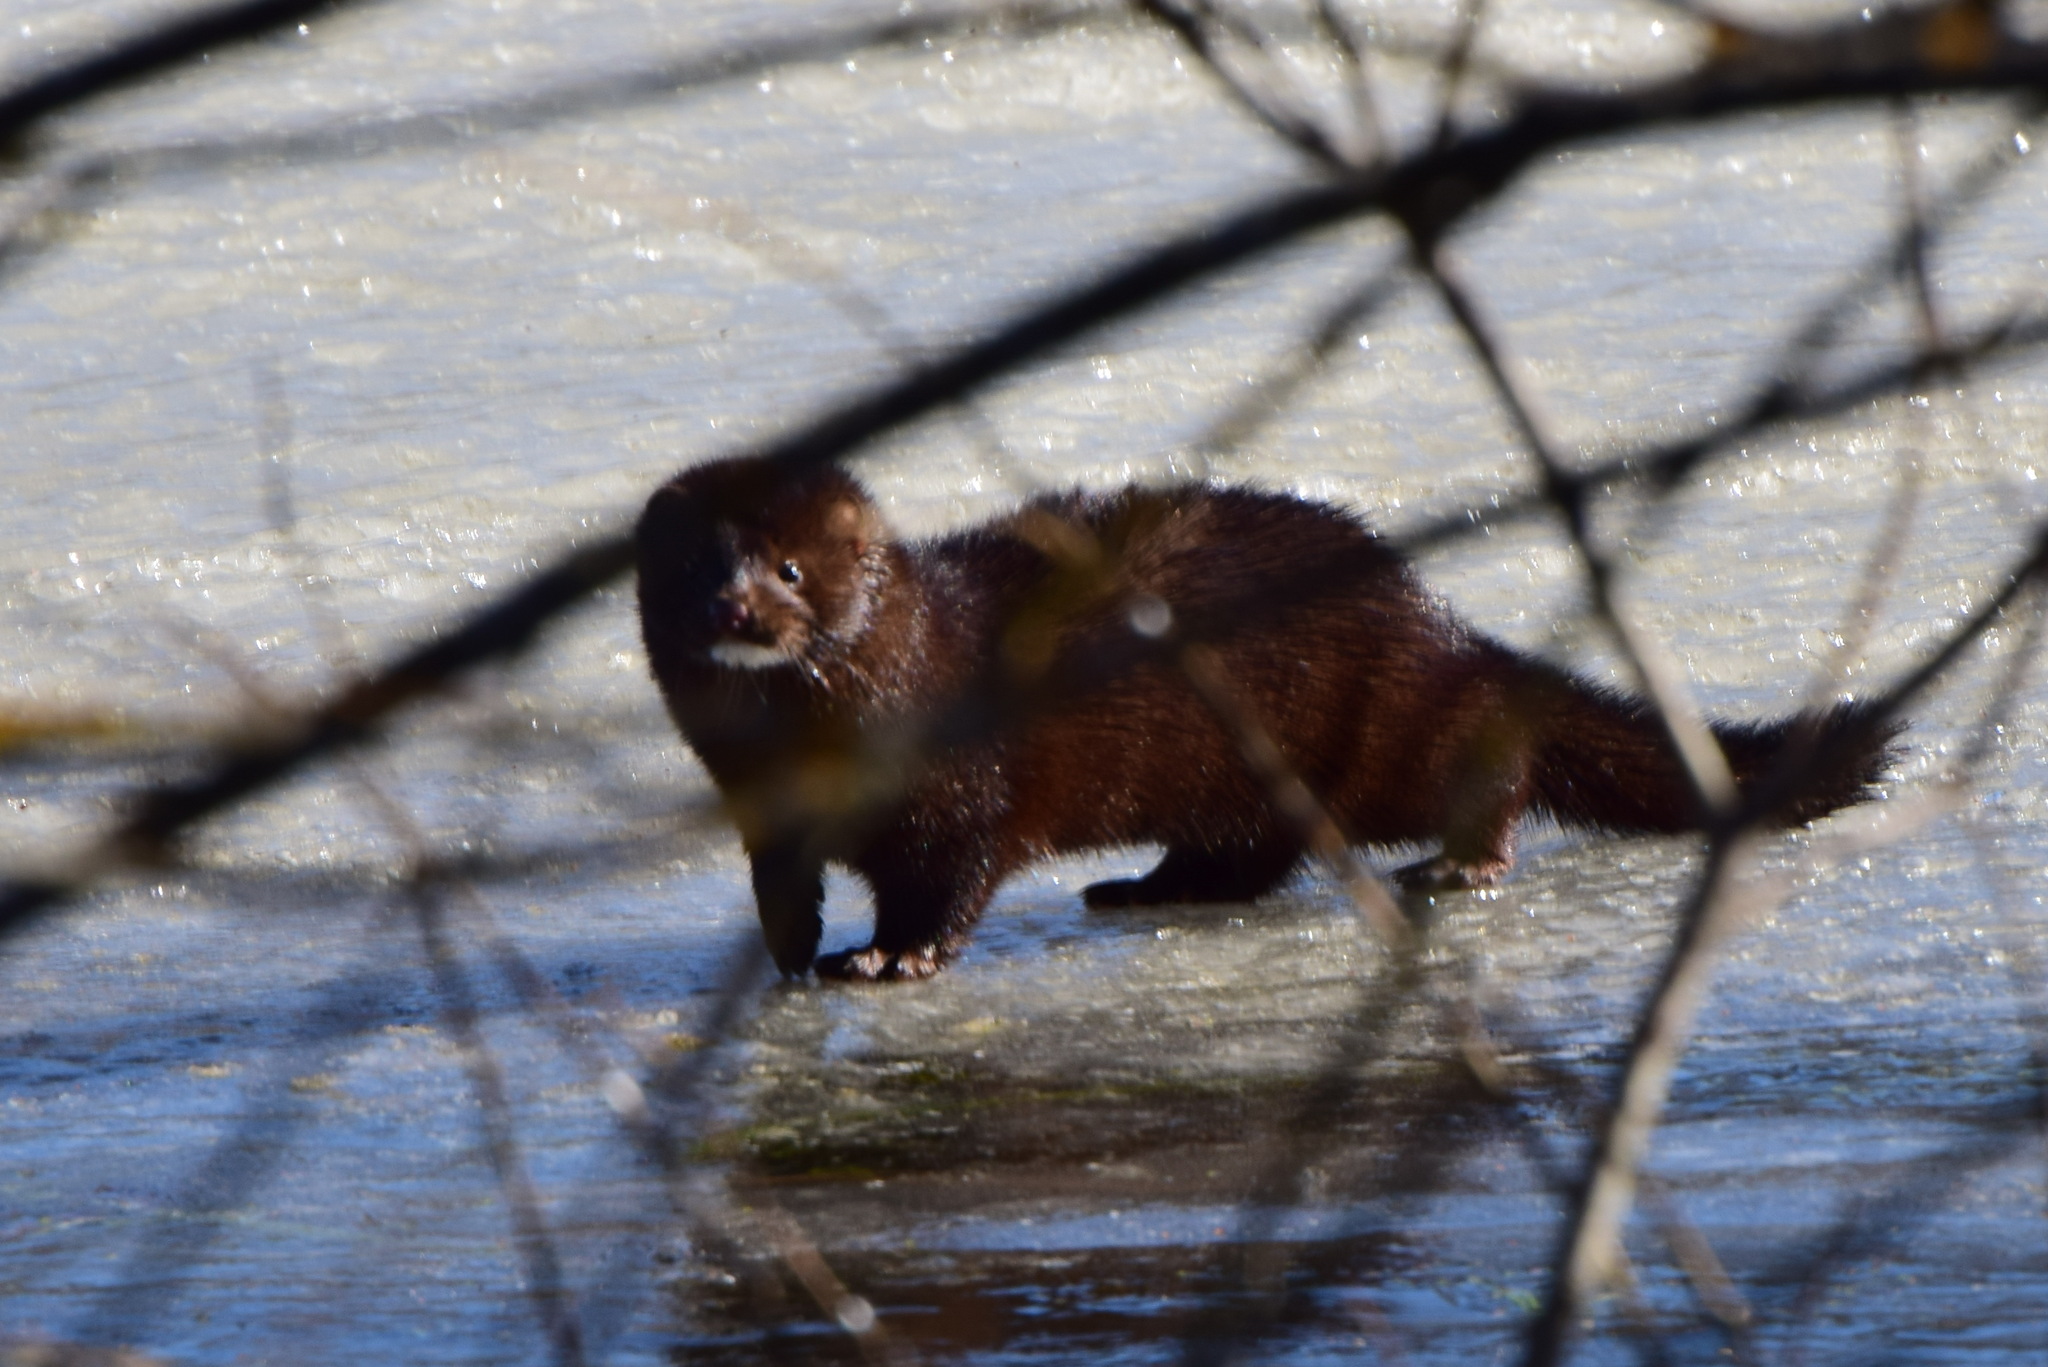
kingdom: Animalia
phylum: Chordata
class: Mammalia
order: Carnivora
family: Mustelidae
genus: Mustela
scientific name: Mustela
